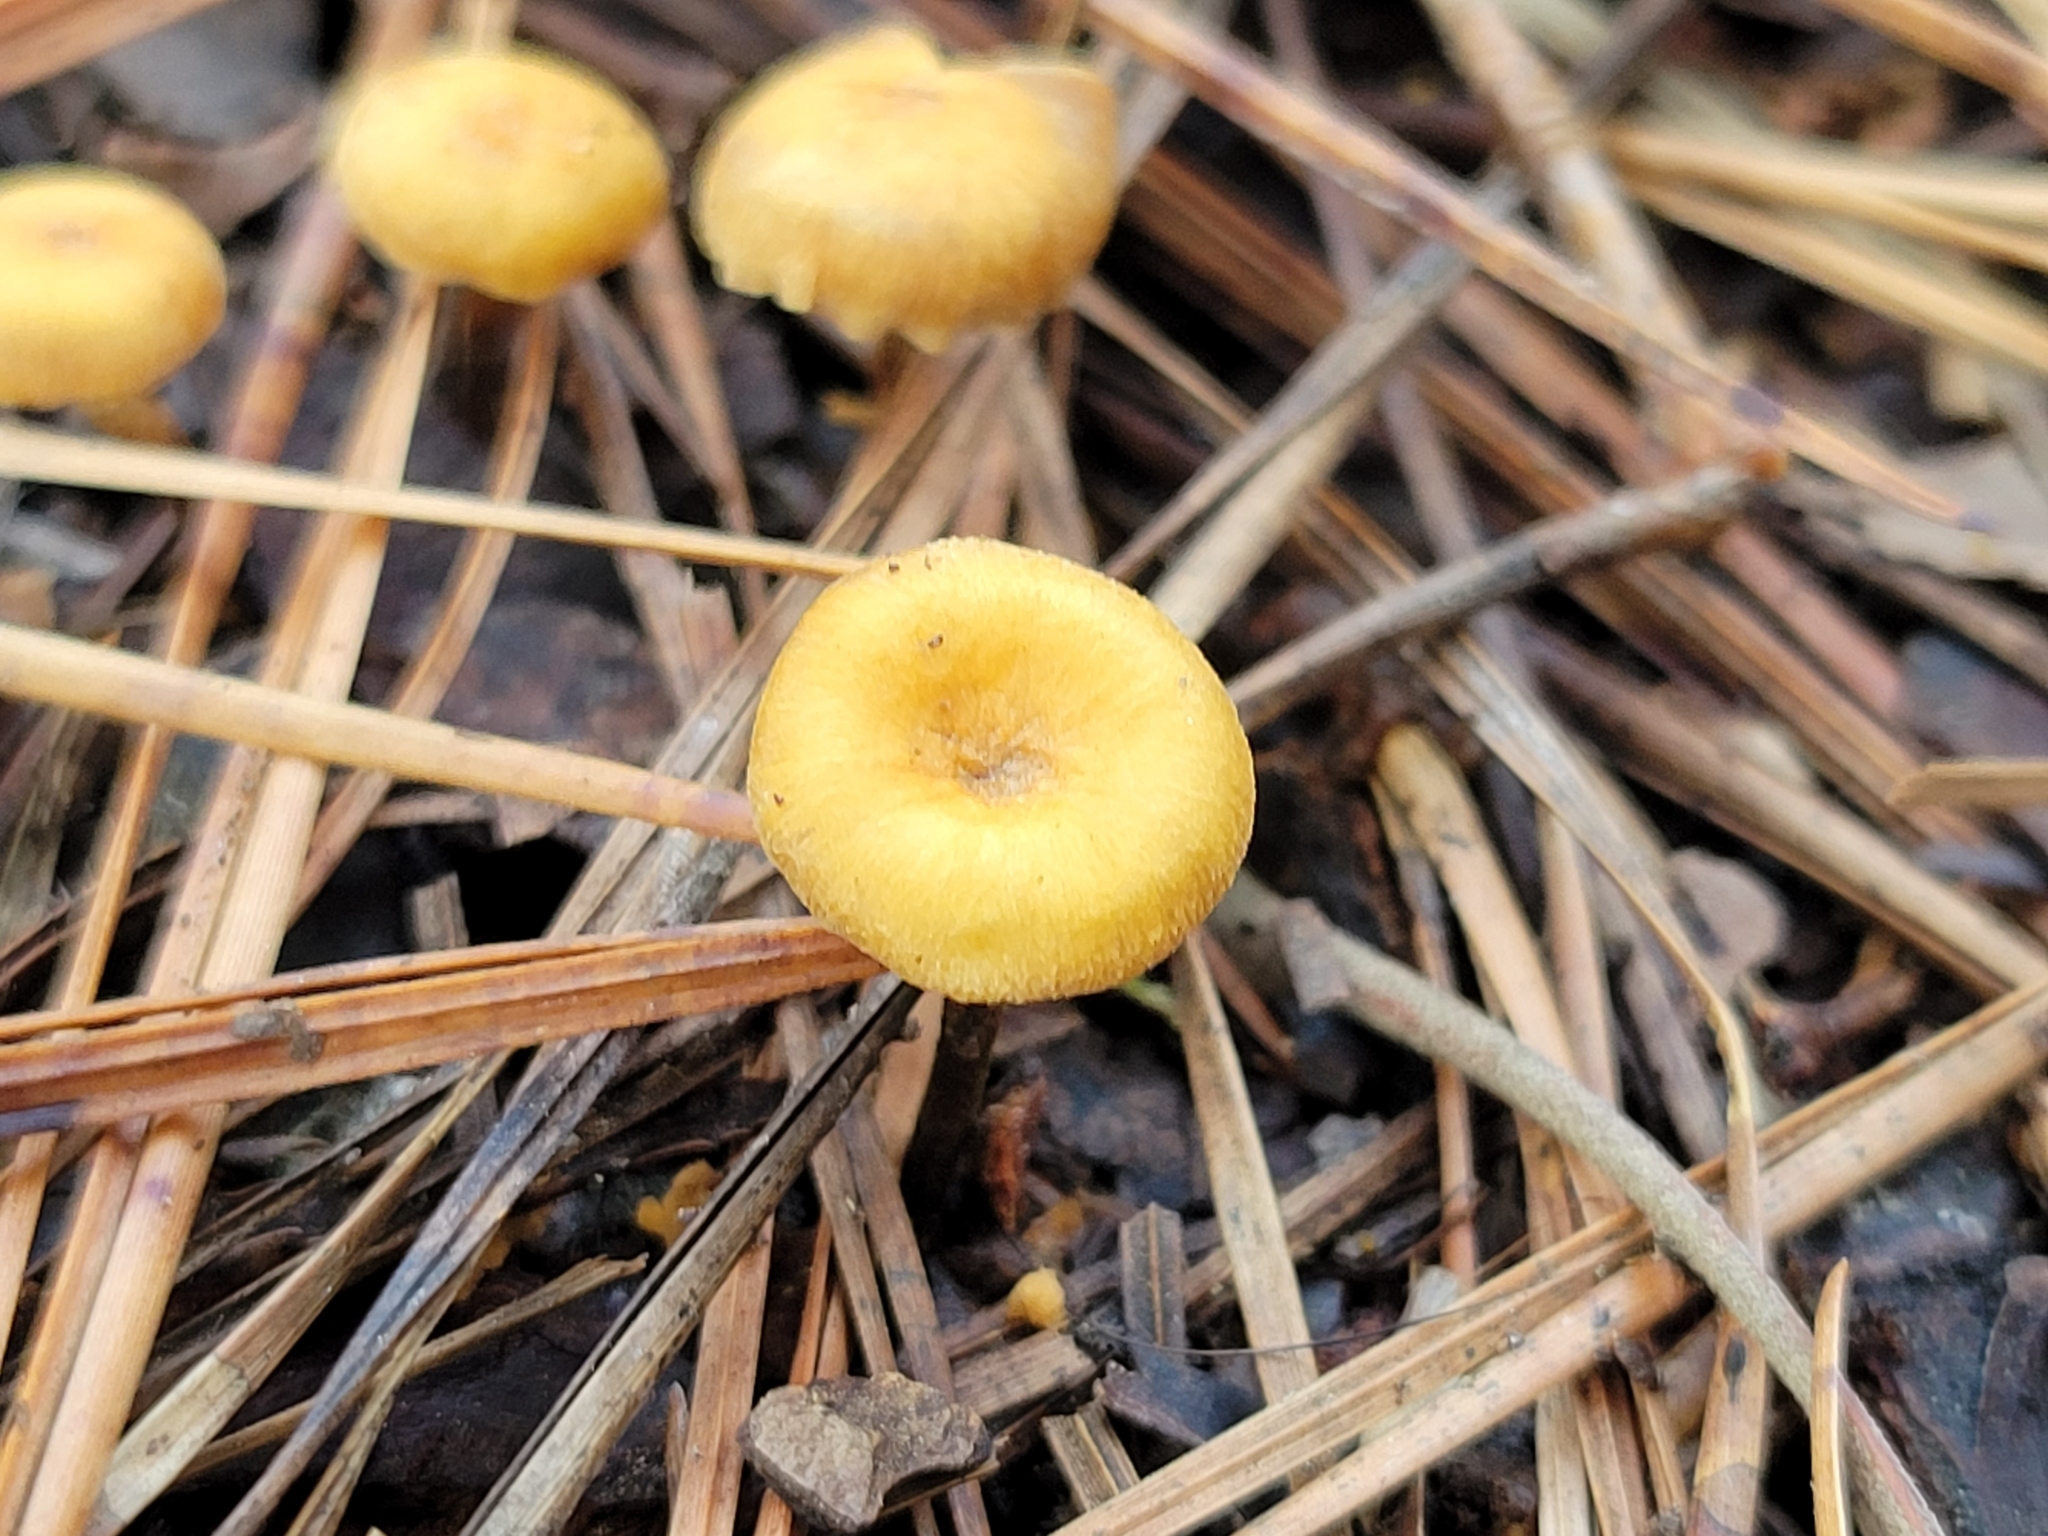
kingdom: Fungi
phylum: Basidiomycota
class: Agaricomycetes
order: Agaricales
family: Mycenaceae
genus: Xeromphalina
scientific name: Xeromphalina cauticinalis
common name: Pinelitter gingertail
